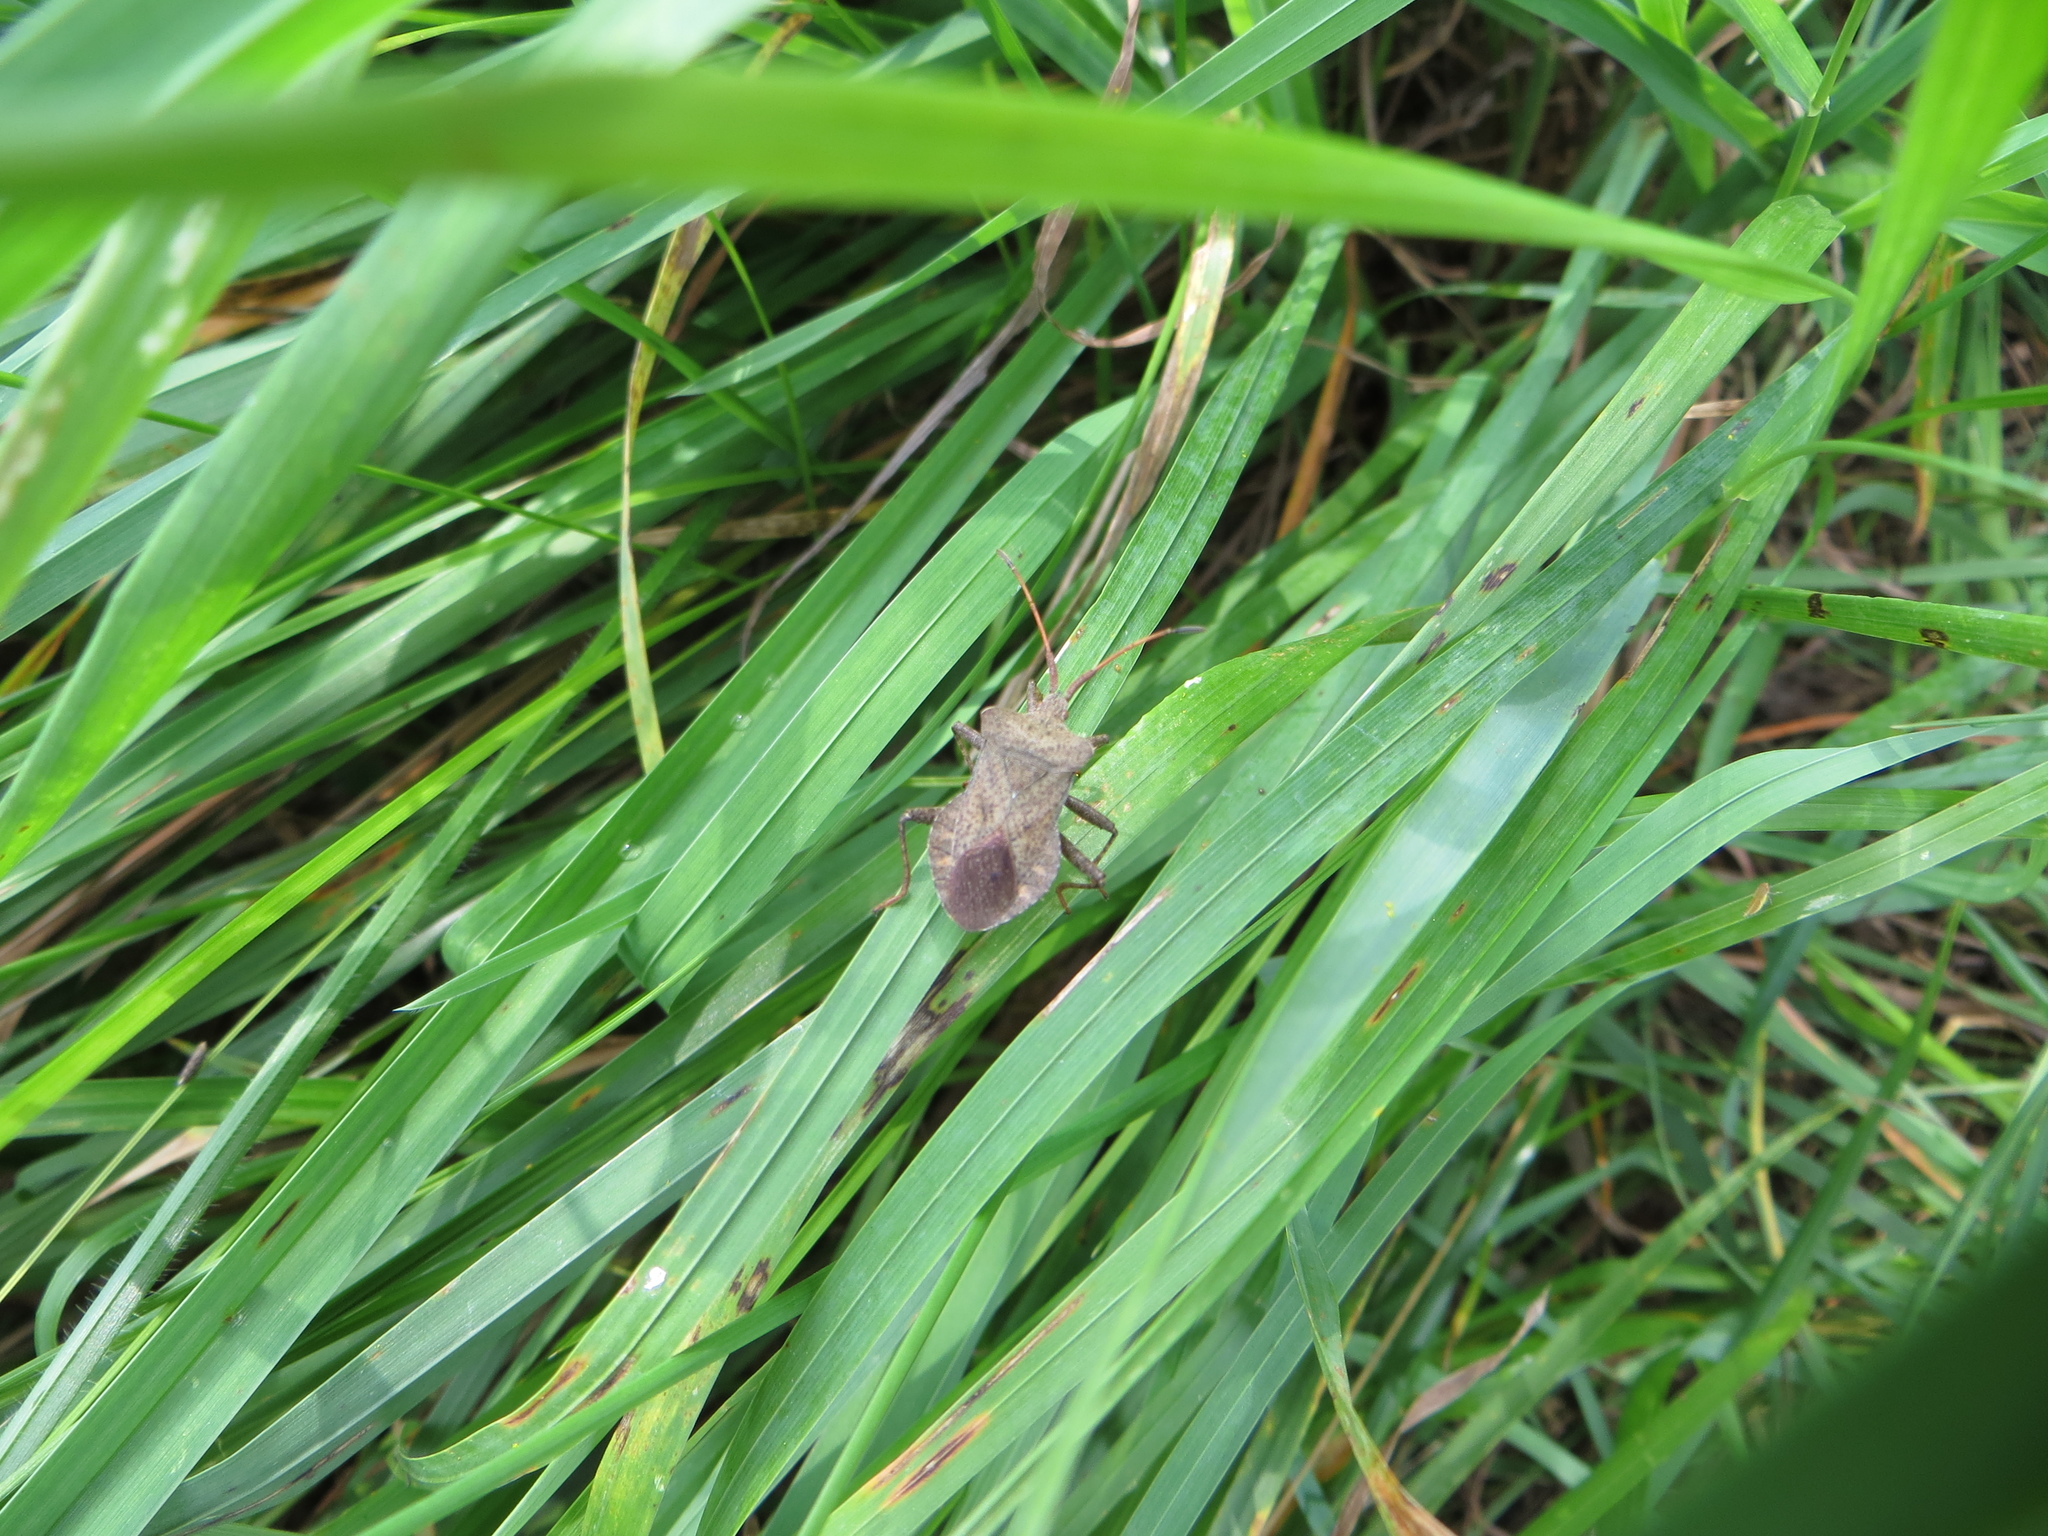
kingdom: Animalia
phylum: Arthropoda
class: Insecta
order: Hemiptera
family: Coreidae
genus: Coreus
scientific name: Coreus marginatus
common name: Dock bug
